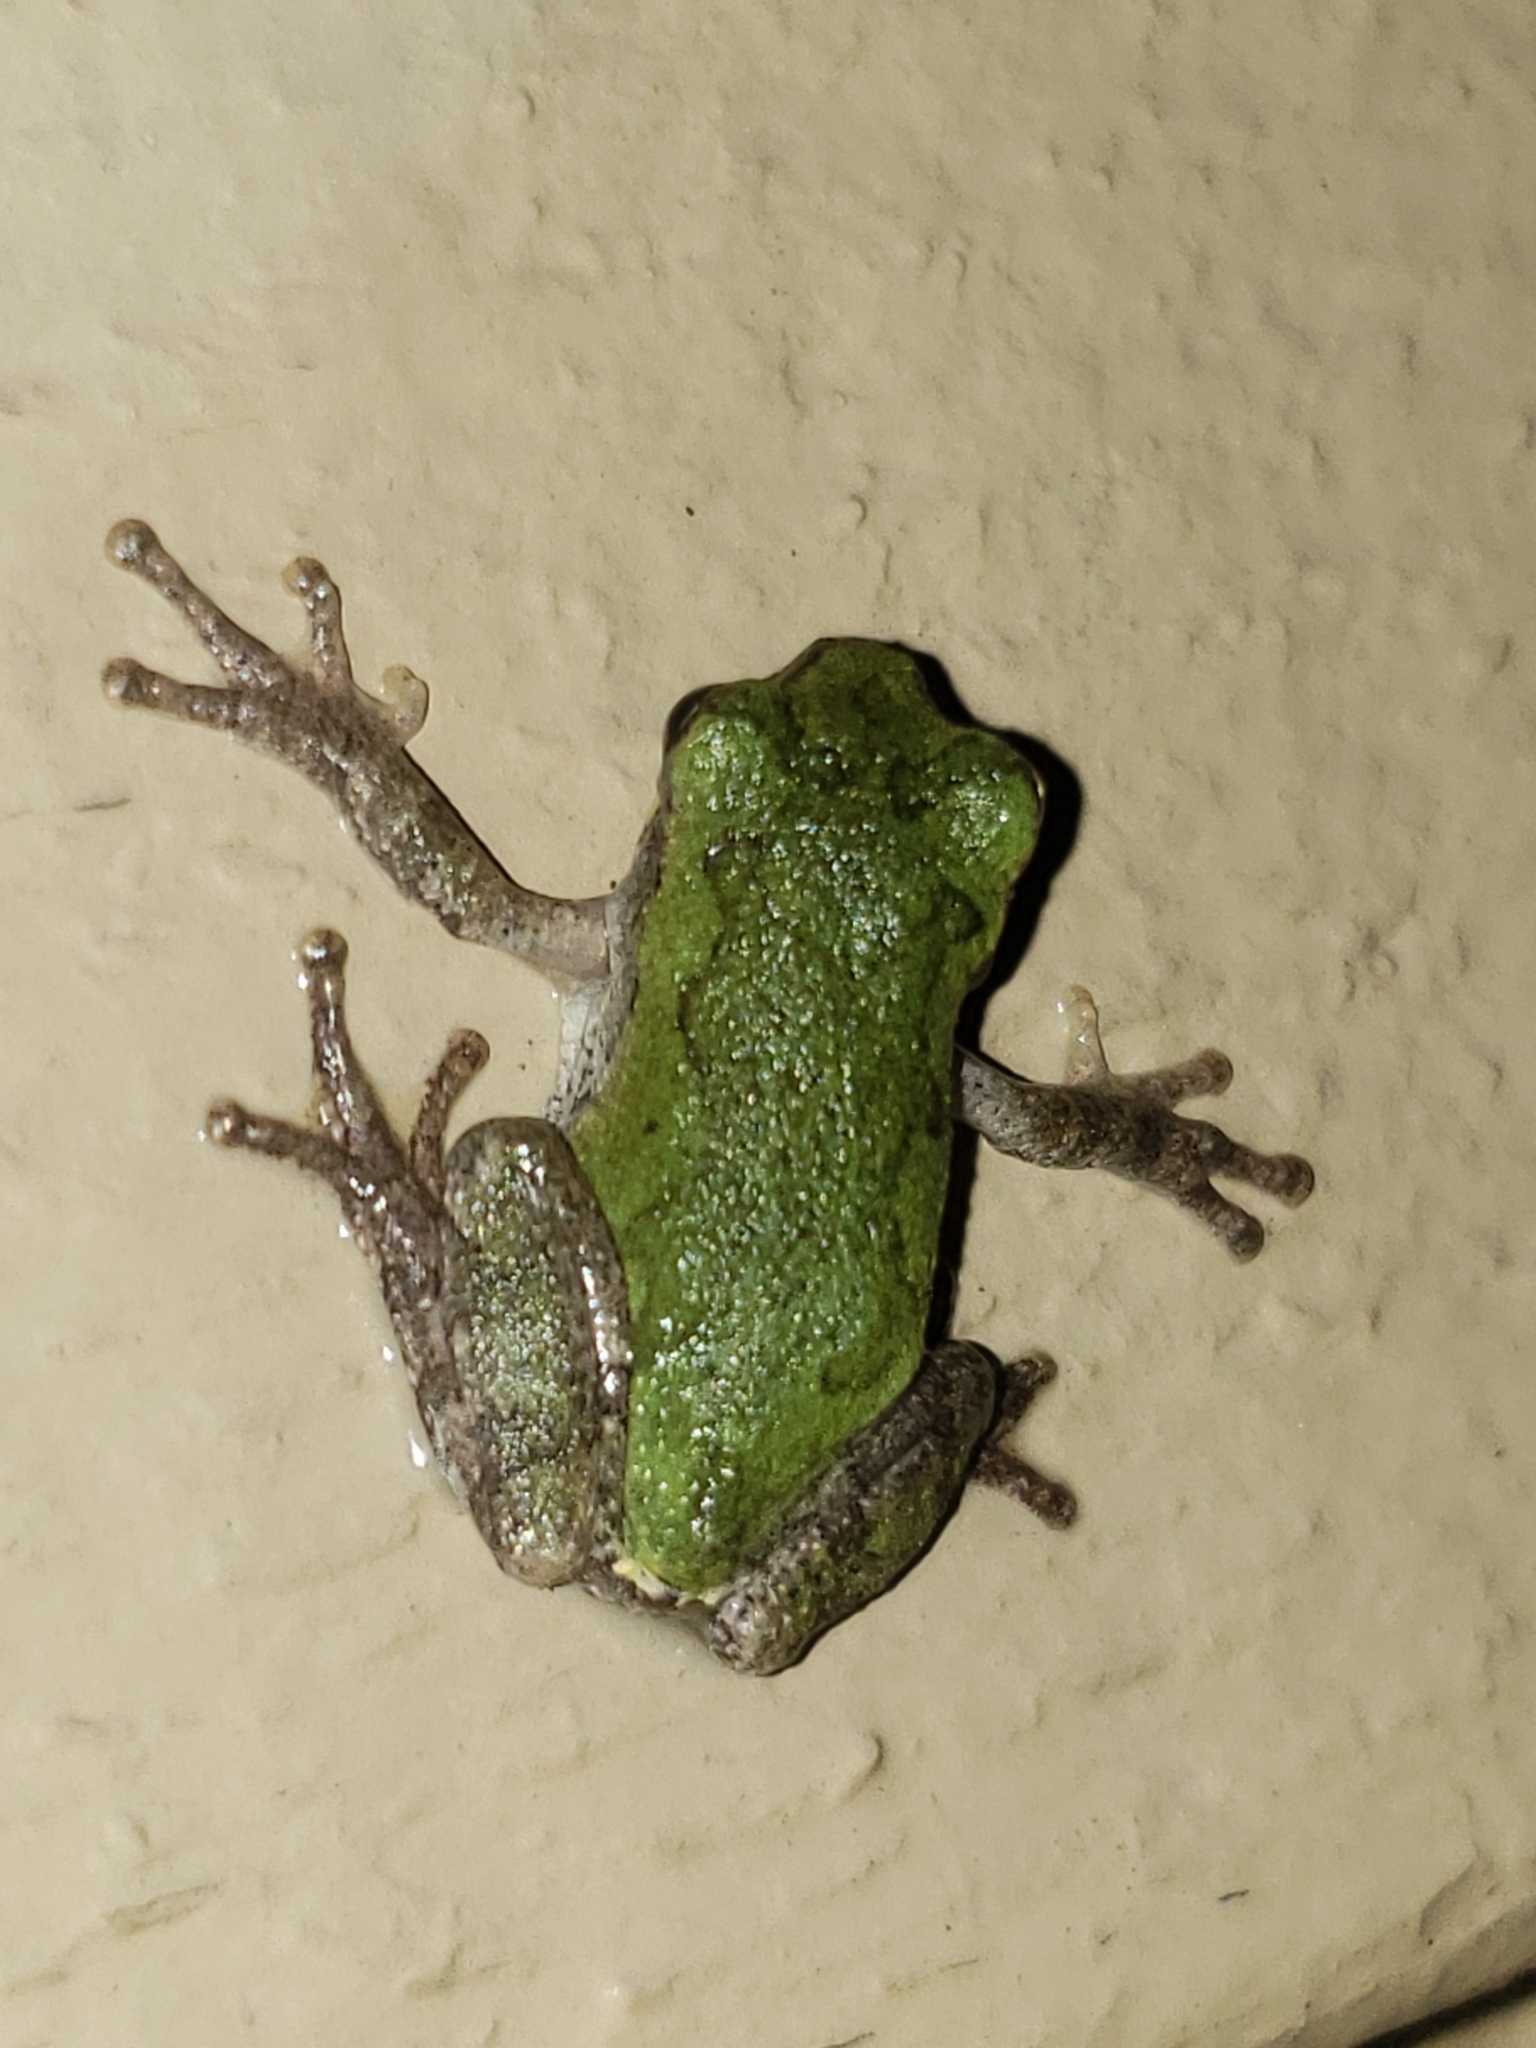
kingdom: Animalia
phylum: Chordata
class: Amphibia
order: Anura
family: Hylidae
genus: Hyla
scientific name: Hyla
